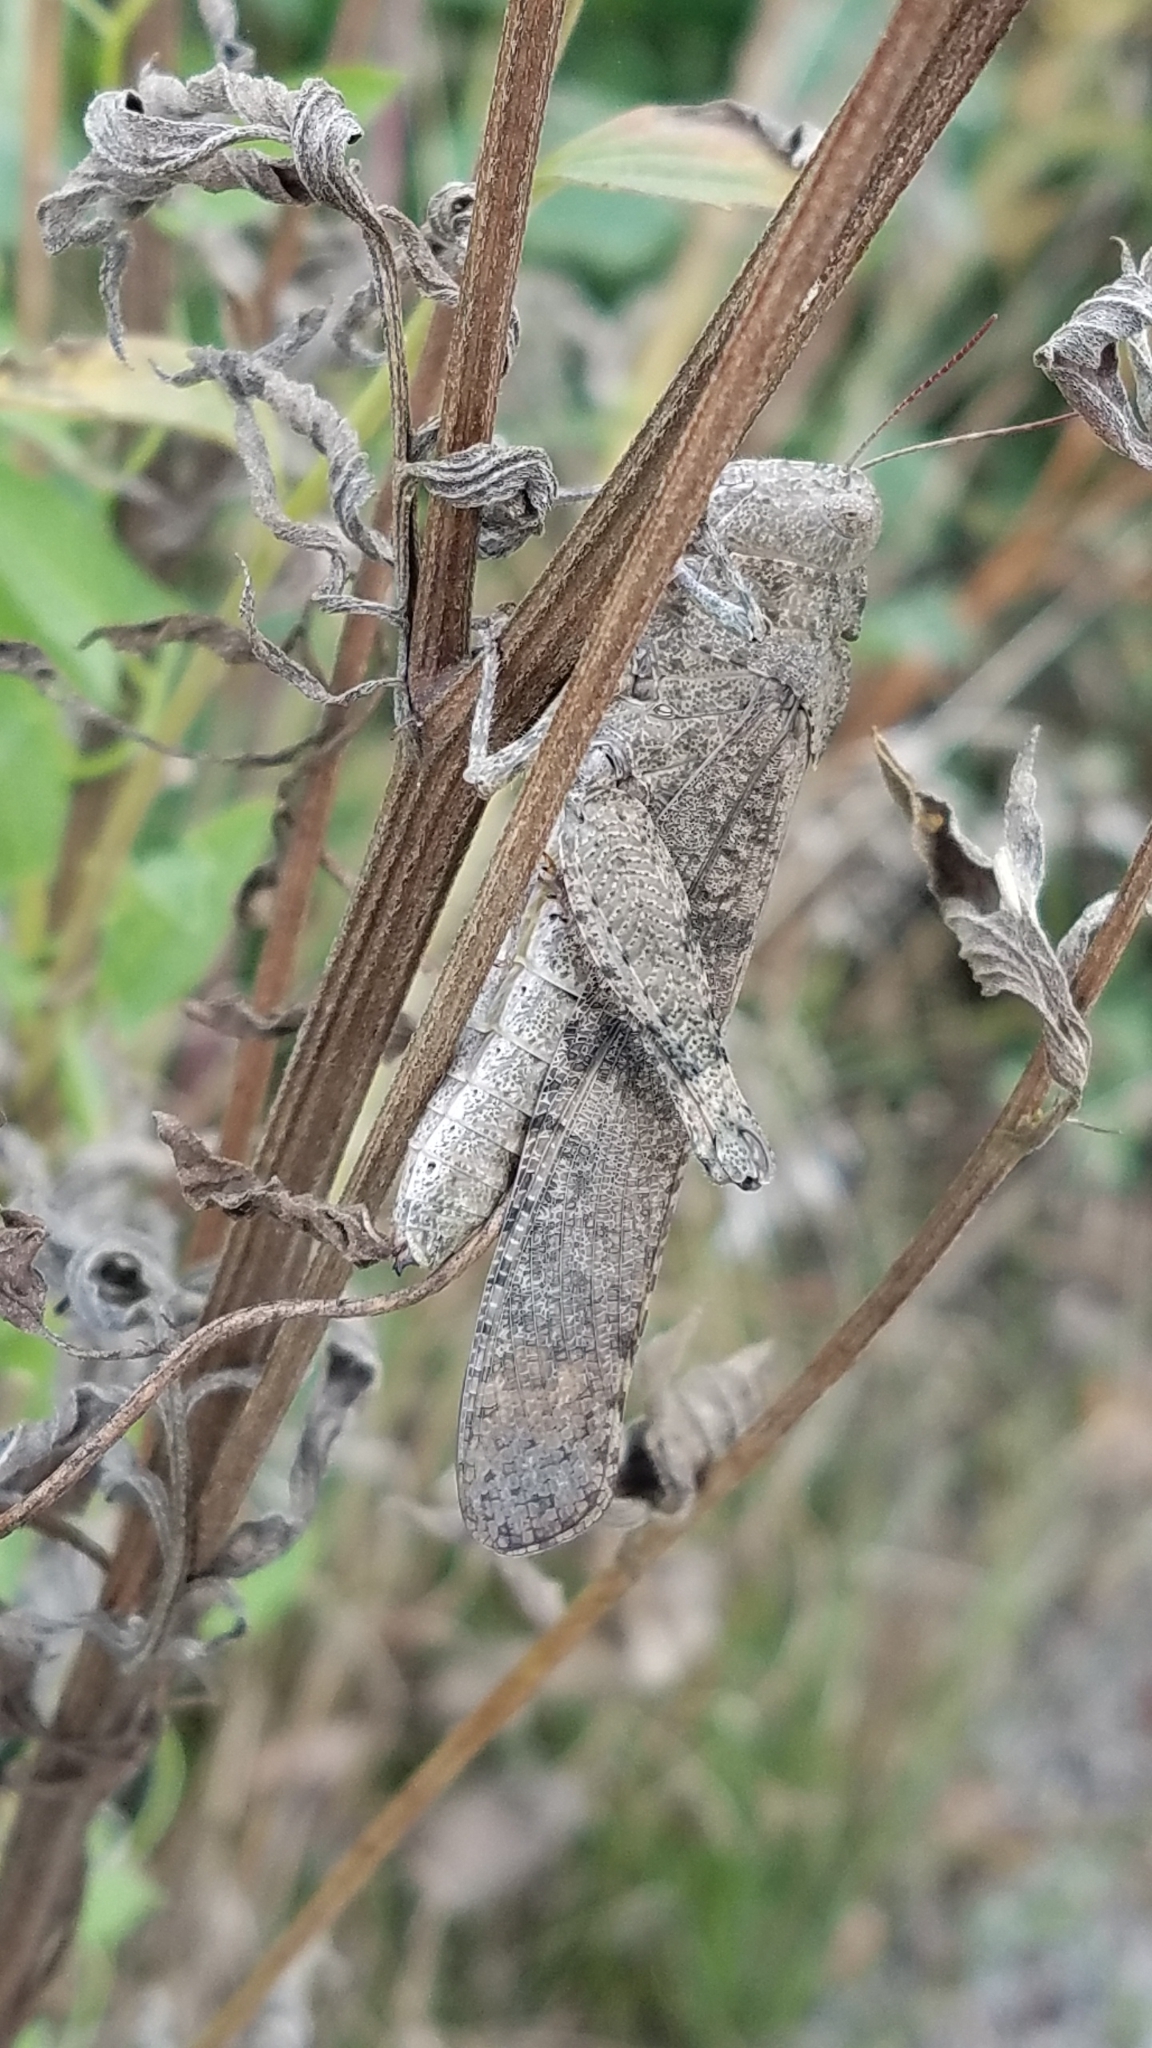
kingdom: Animalia
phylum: Arthropoda
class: Insecta
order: Orthoptera
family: Acrididae
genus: Dissosteira
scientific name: Dissosteira carolina
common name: Carolina grasshopper
